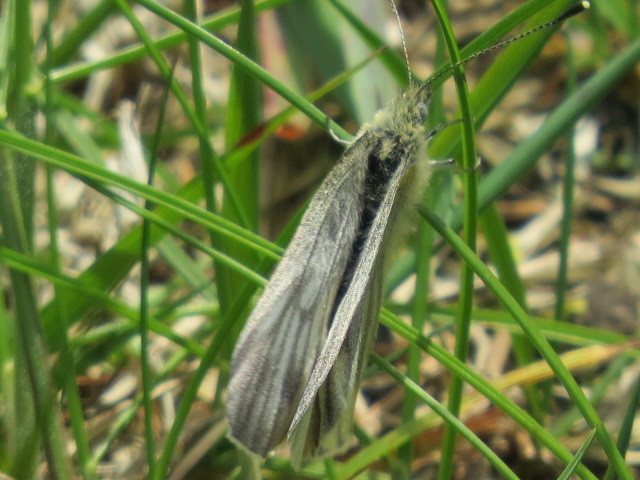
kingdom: Animalia
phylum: Arthropoda
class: Insecta
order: Lepidoptera
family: Pieridae
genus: Pieris
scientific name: Pieris bryoniae
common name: Mountain green-veined white
